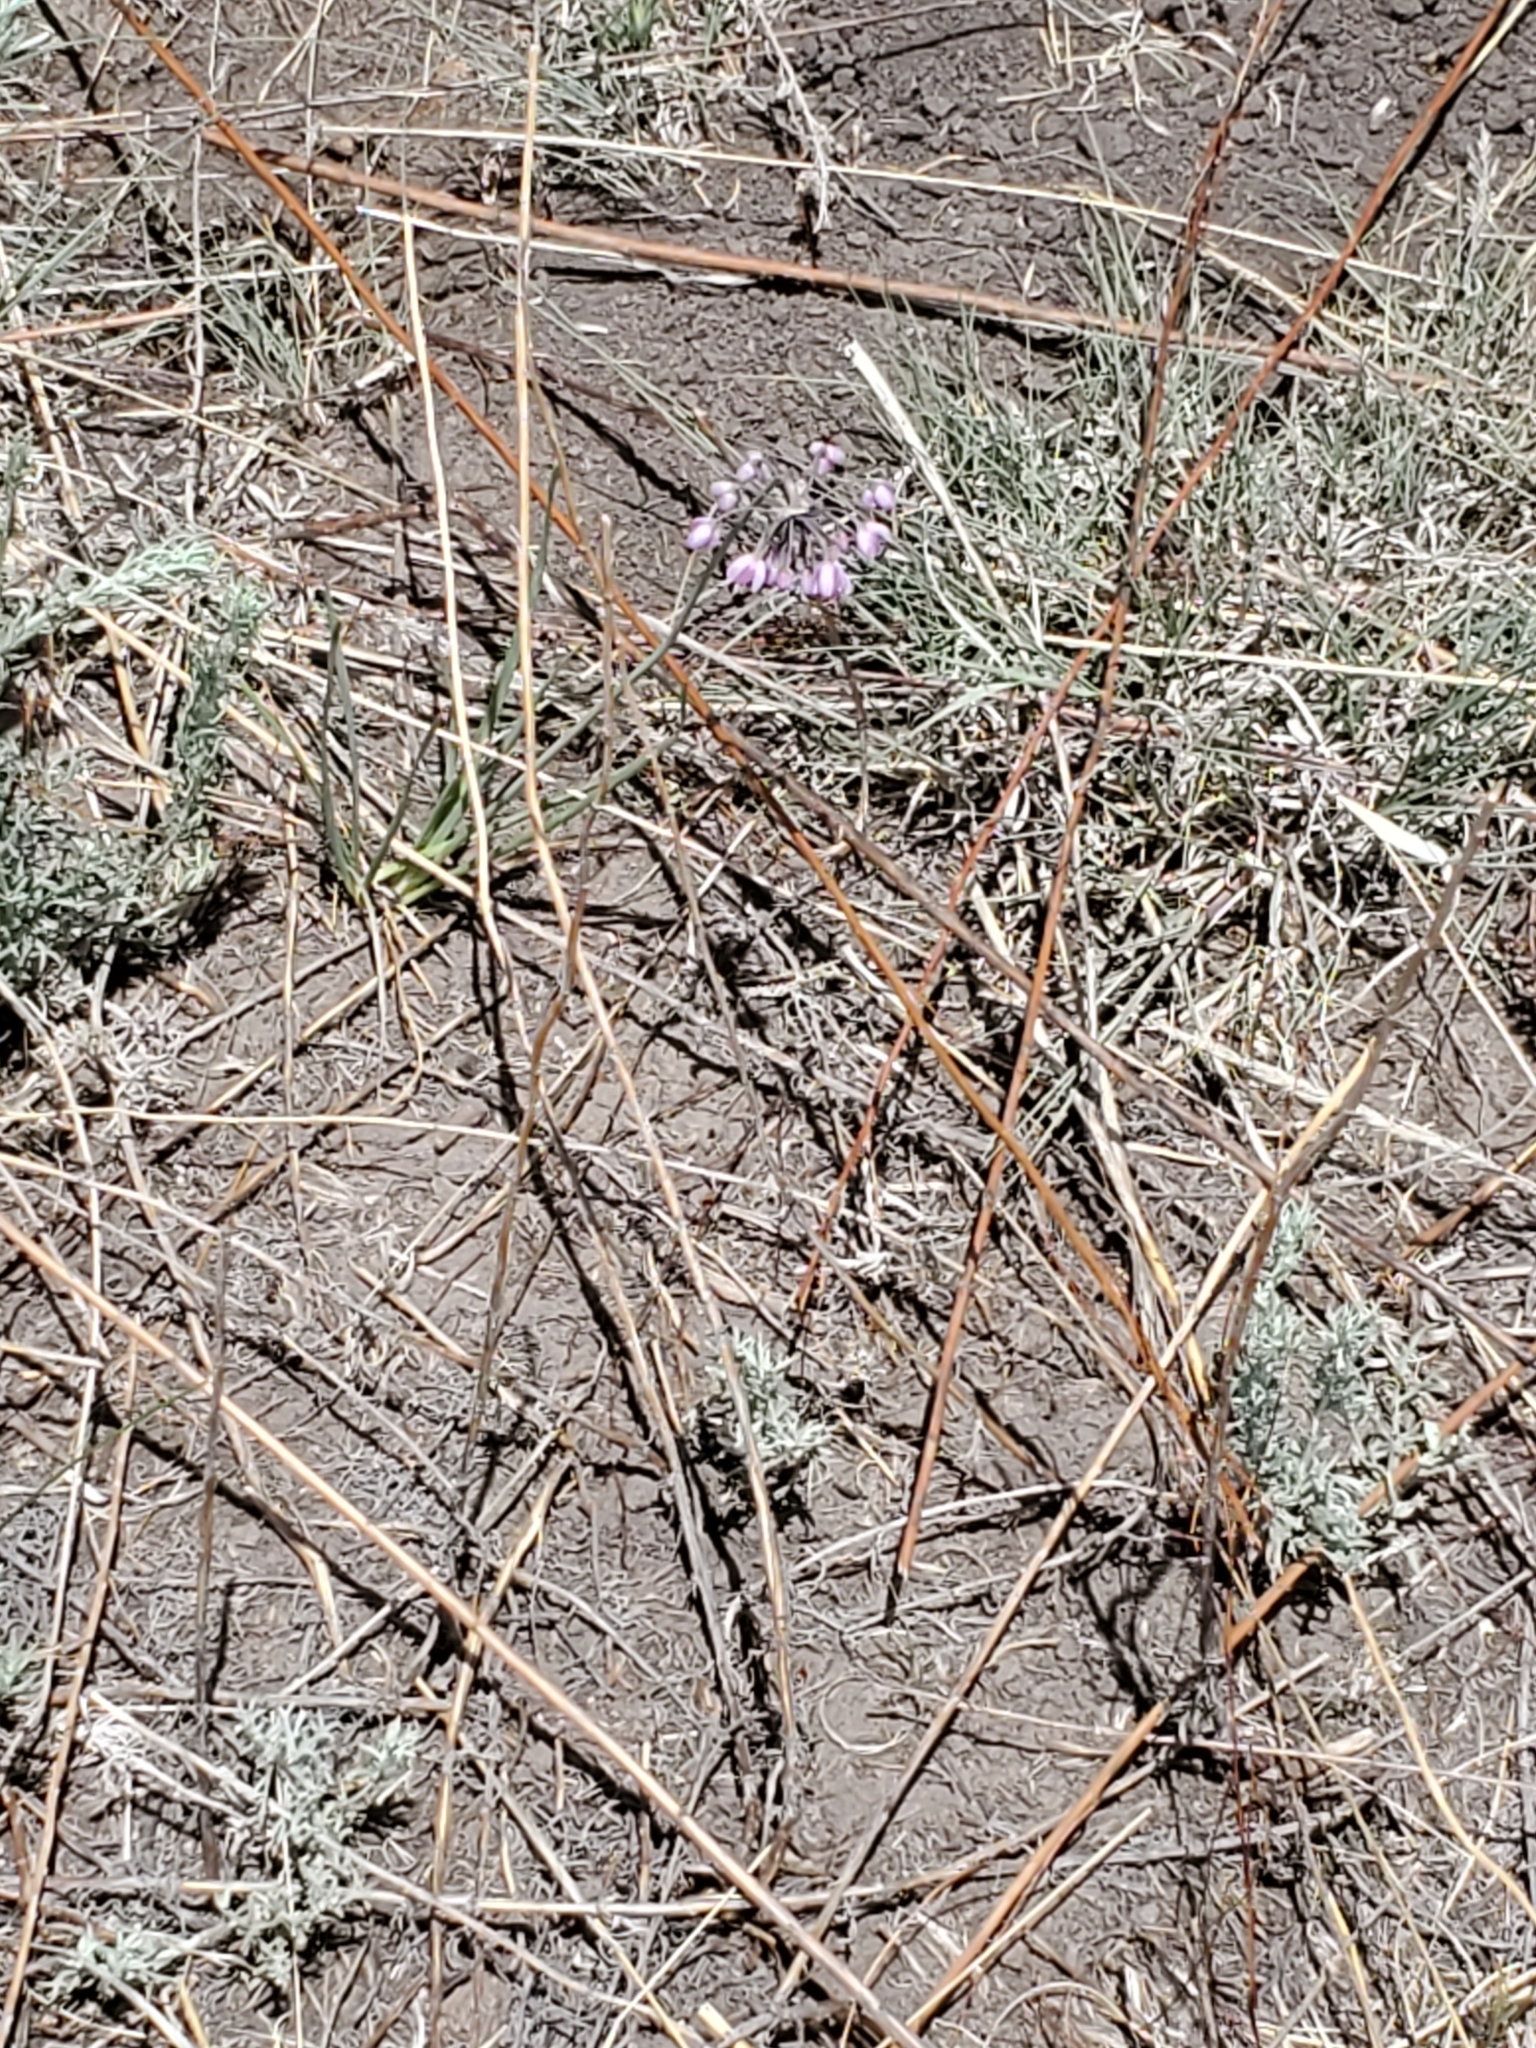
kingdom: Plantae
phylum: Tracheophyta
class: Liliopsida
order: Asparagales
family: Amaryllidaceae
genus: Allium
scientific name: Allium cernuum
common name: Nodding onion
